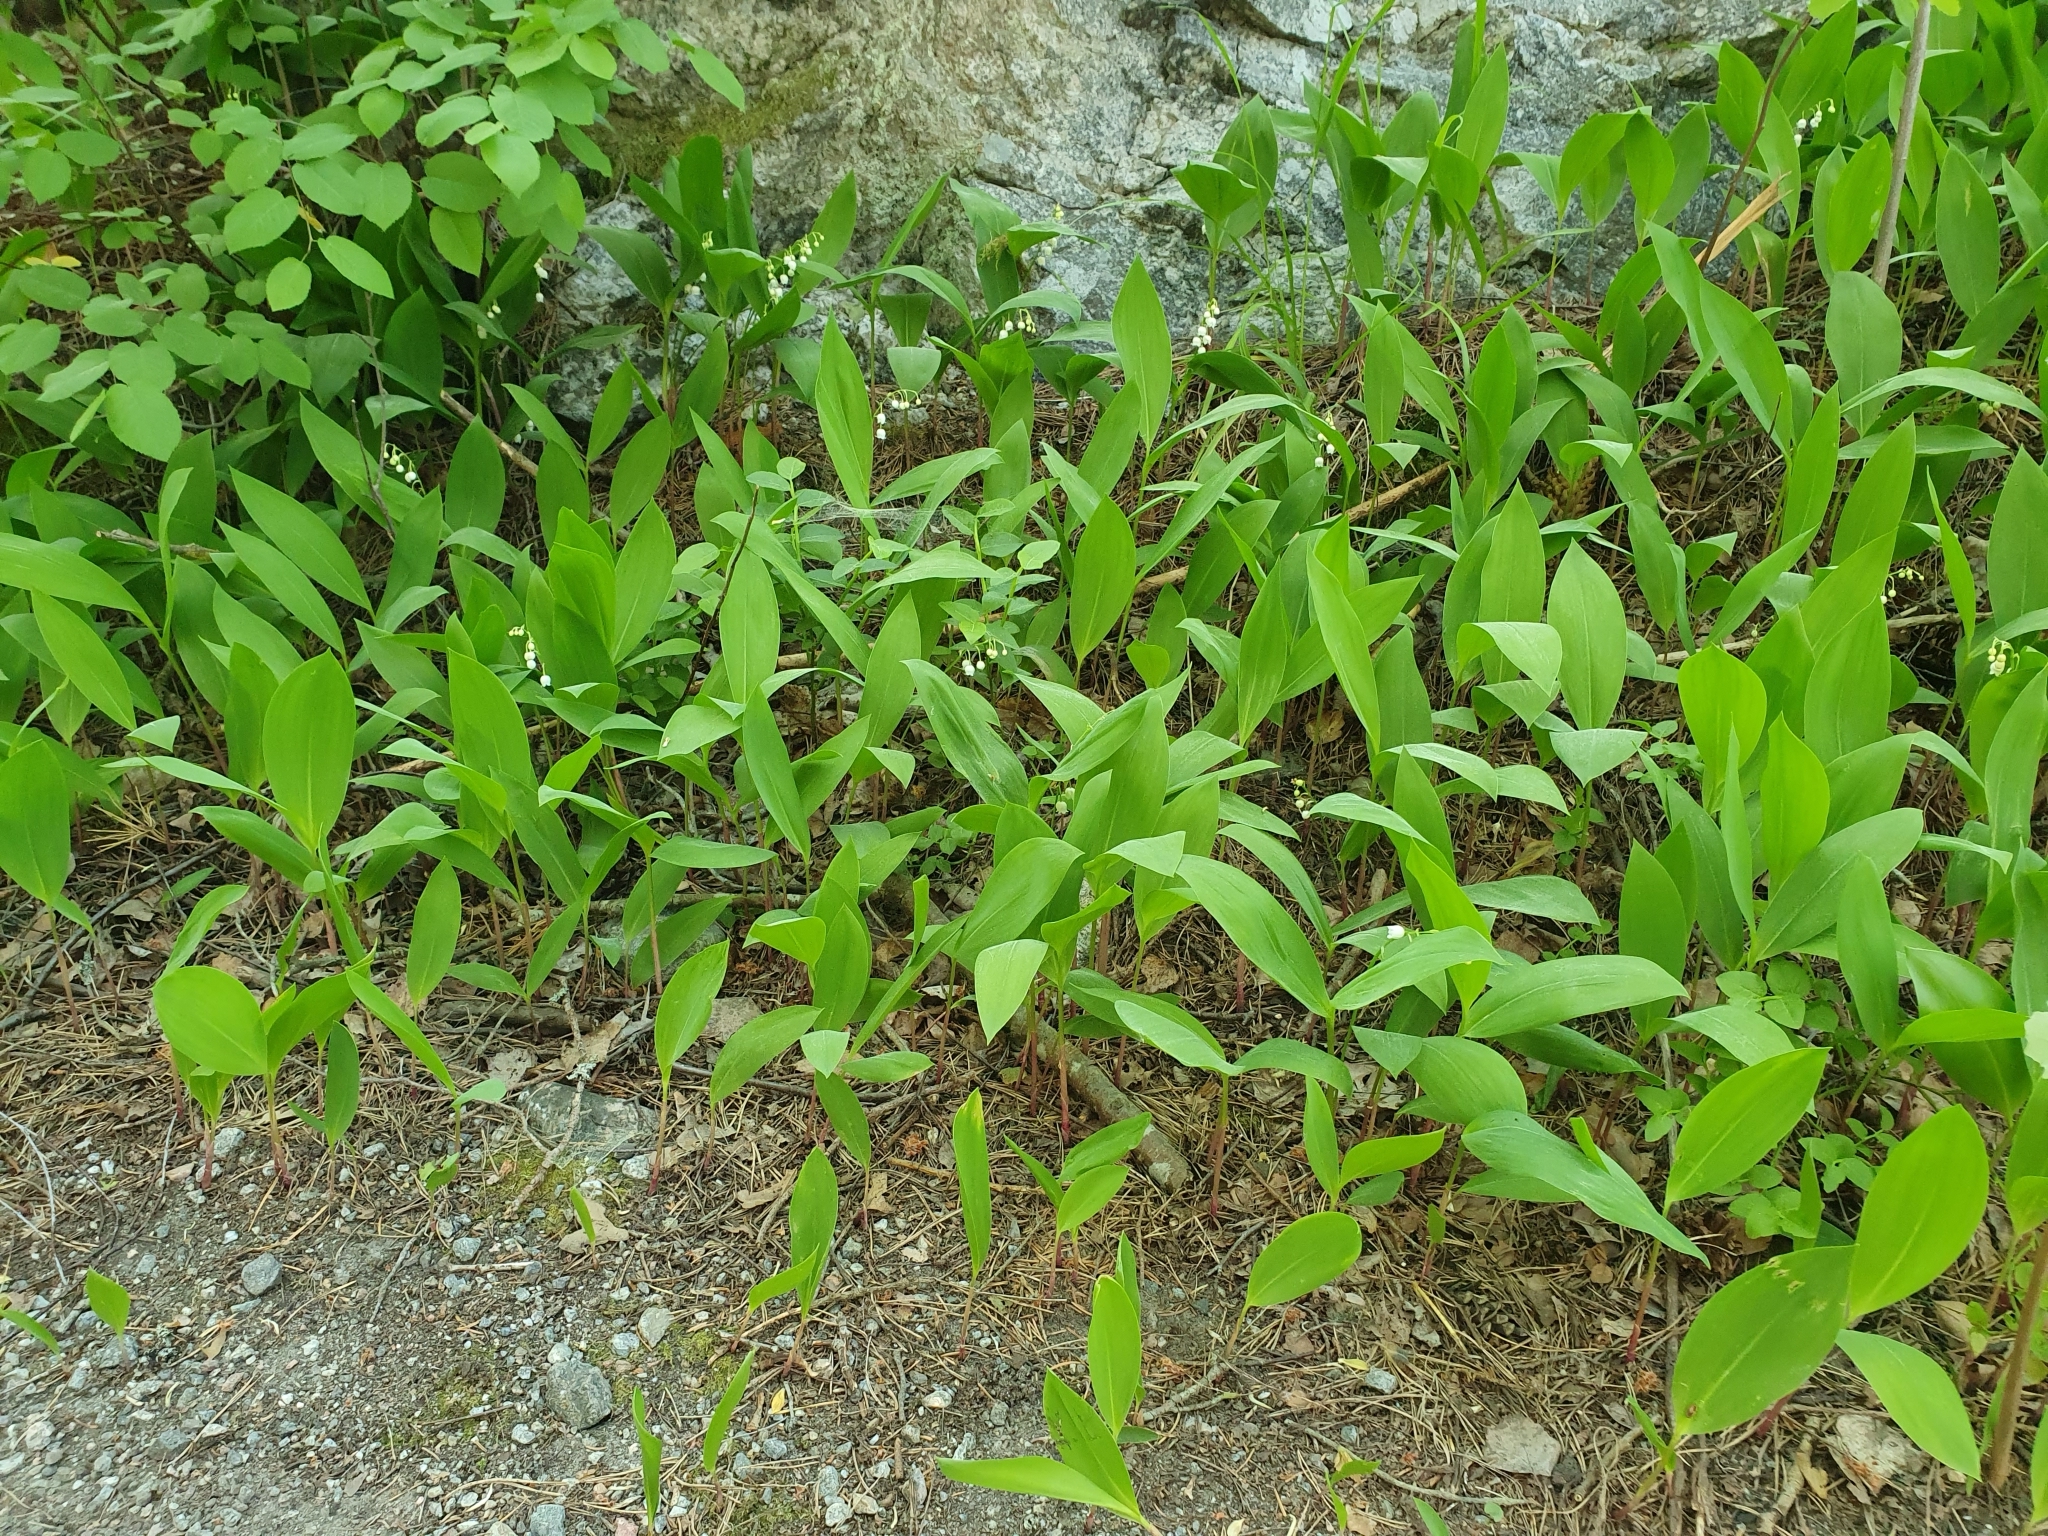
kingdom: Plantae
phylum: Tracheophyta
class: Liliopsida
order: Asparagales
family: Asparagaceae
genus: Convallaria
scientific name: Convallaria majalis
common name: Lily-of-the-valley
